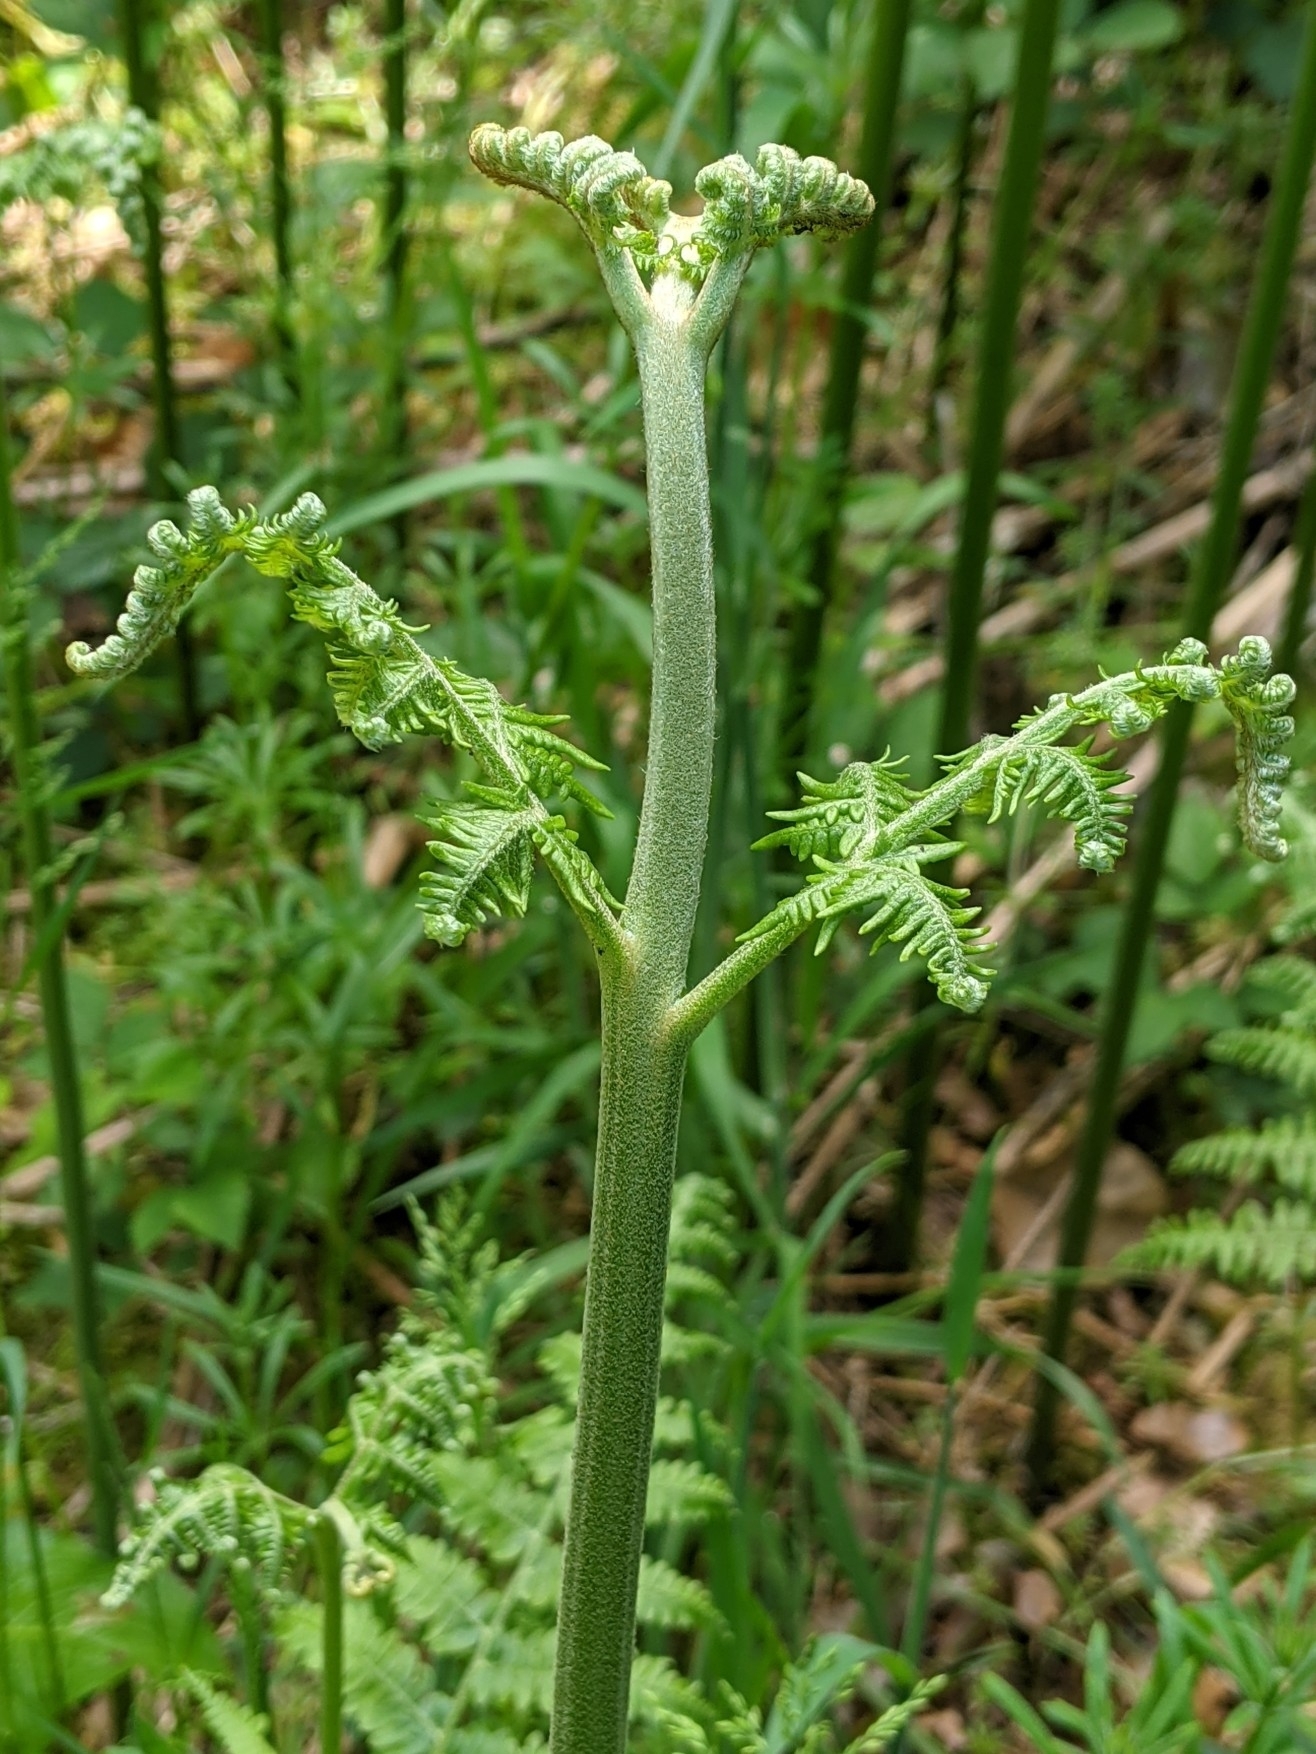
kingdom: Plantae
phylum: Tracheophyta
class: Polypodiopsida
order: Polypodiales
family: Dennstaedtiaceae
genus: Pteridium
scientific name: Pteridium aquilinum
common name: Bracken
